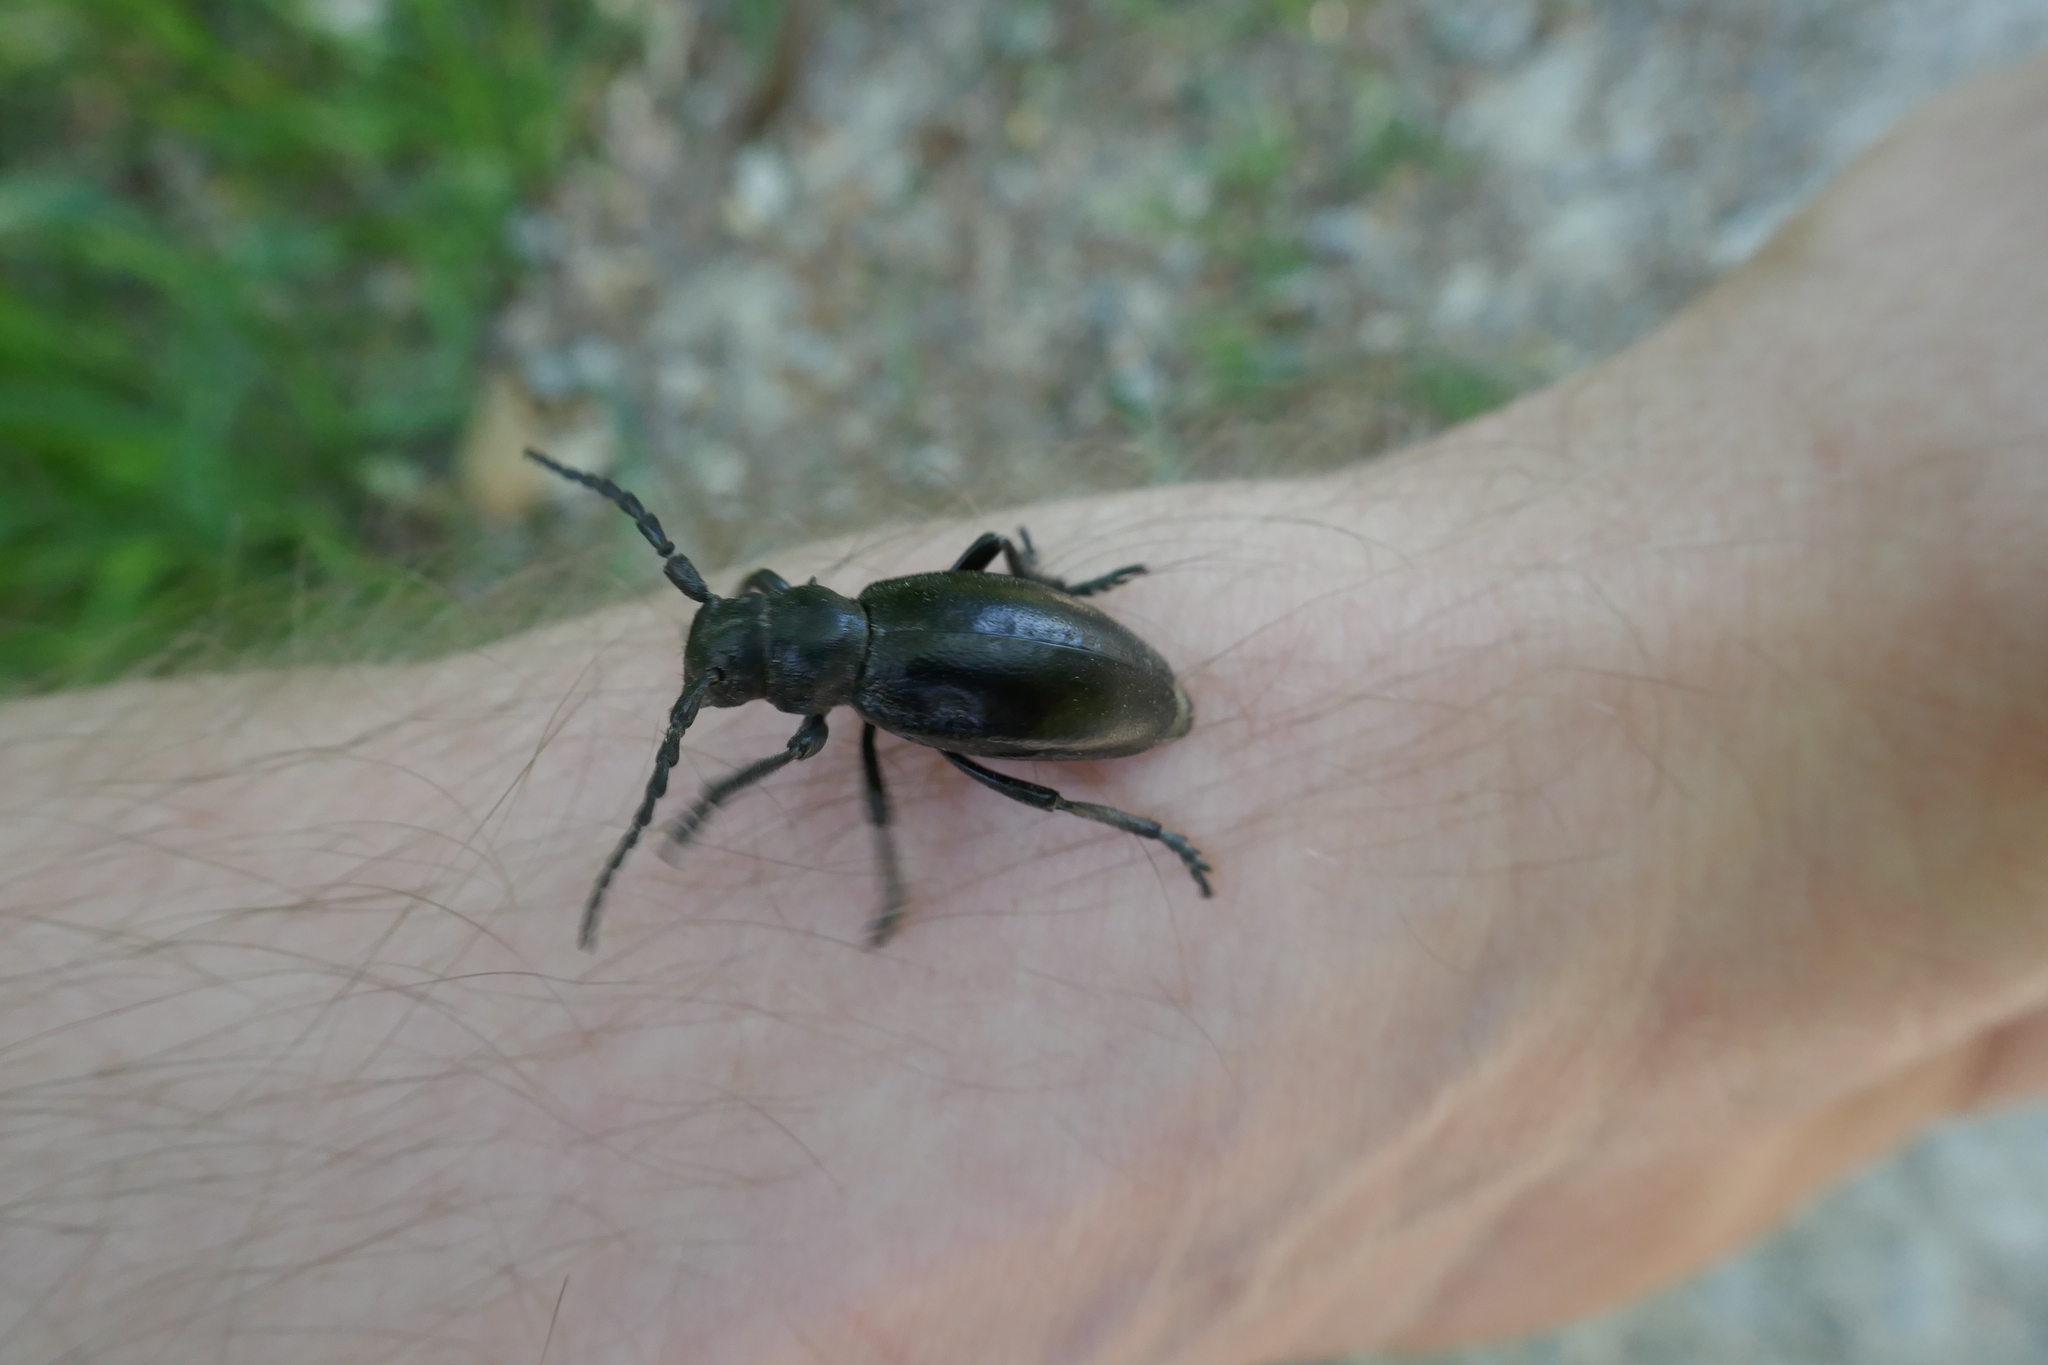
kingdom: Animalia
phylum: Arthropoda
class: Insecta
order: Coleoptera
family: Cerambycidae
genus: Dorcadion
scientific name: Dorcadion aethiops
